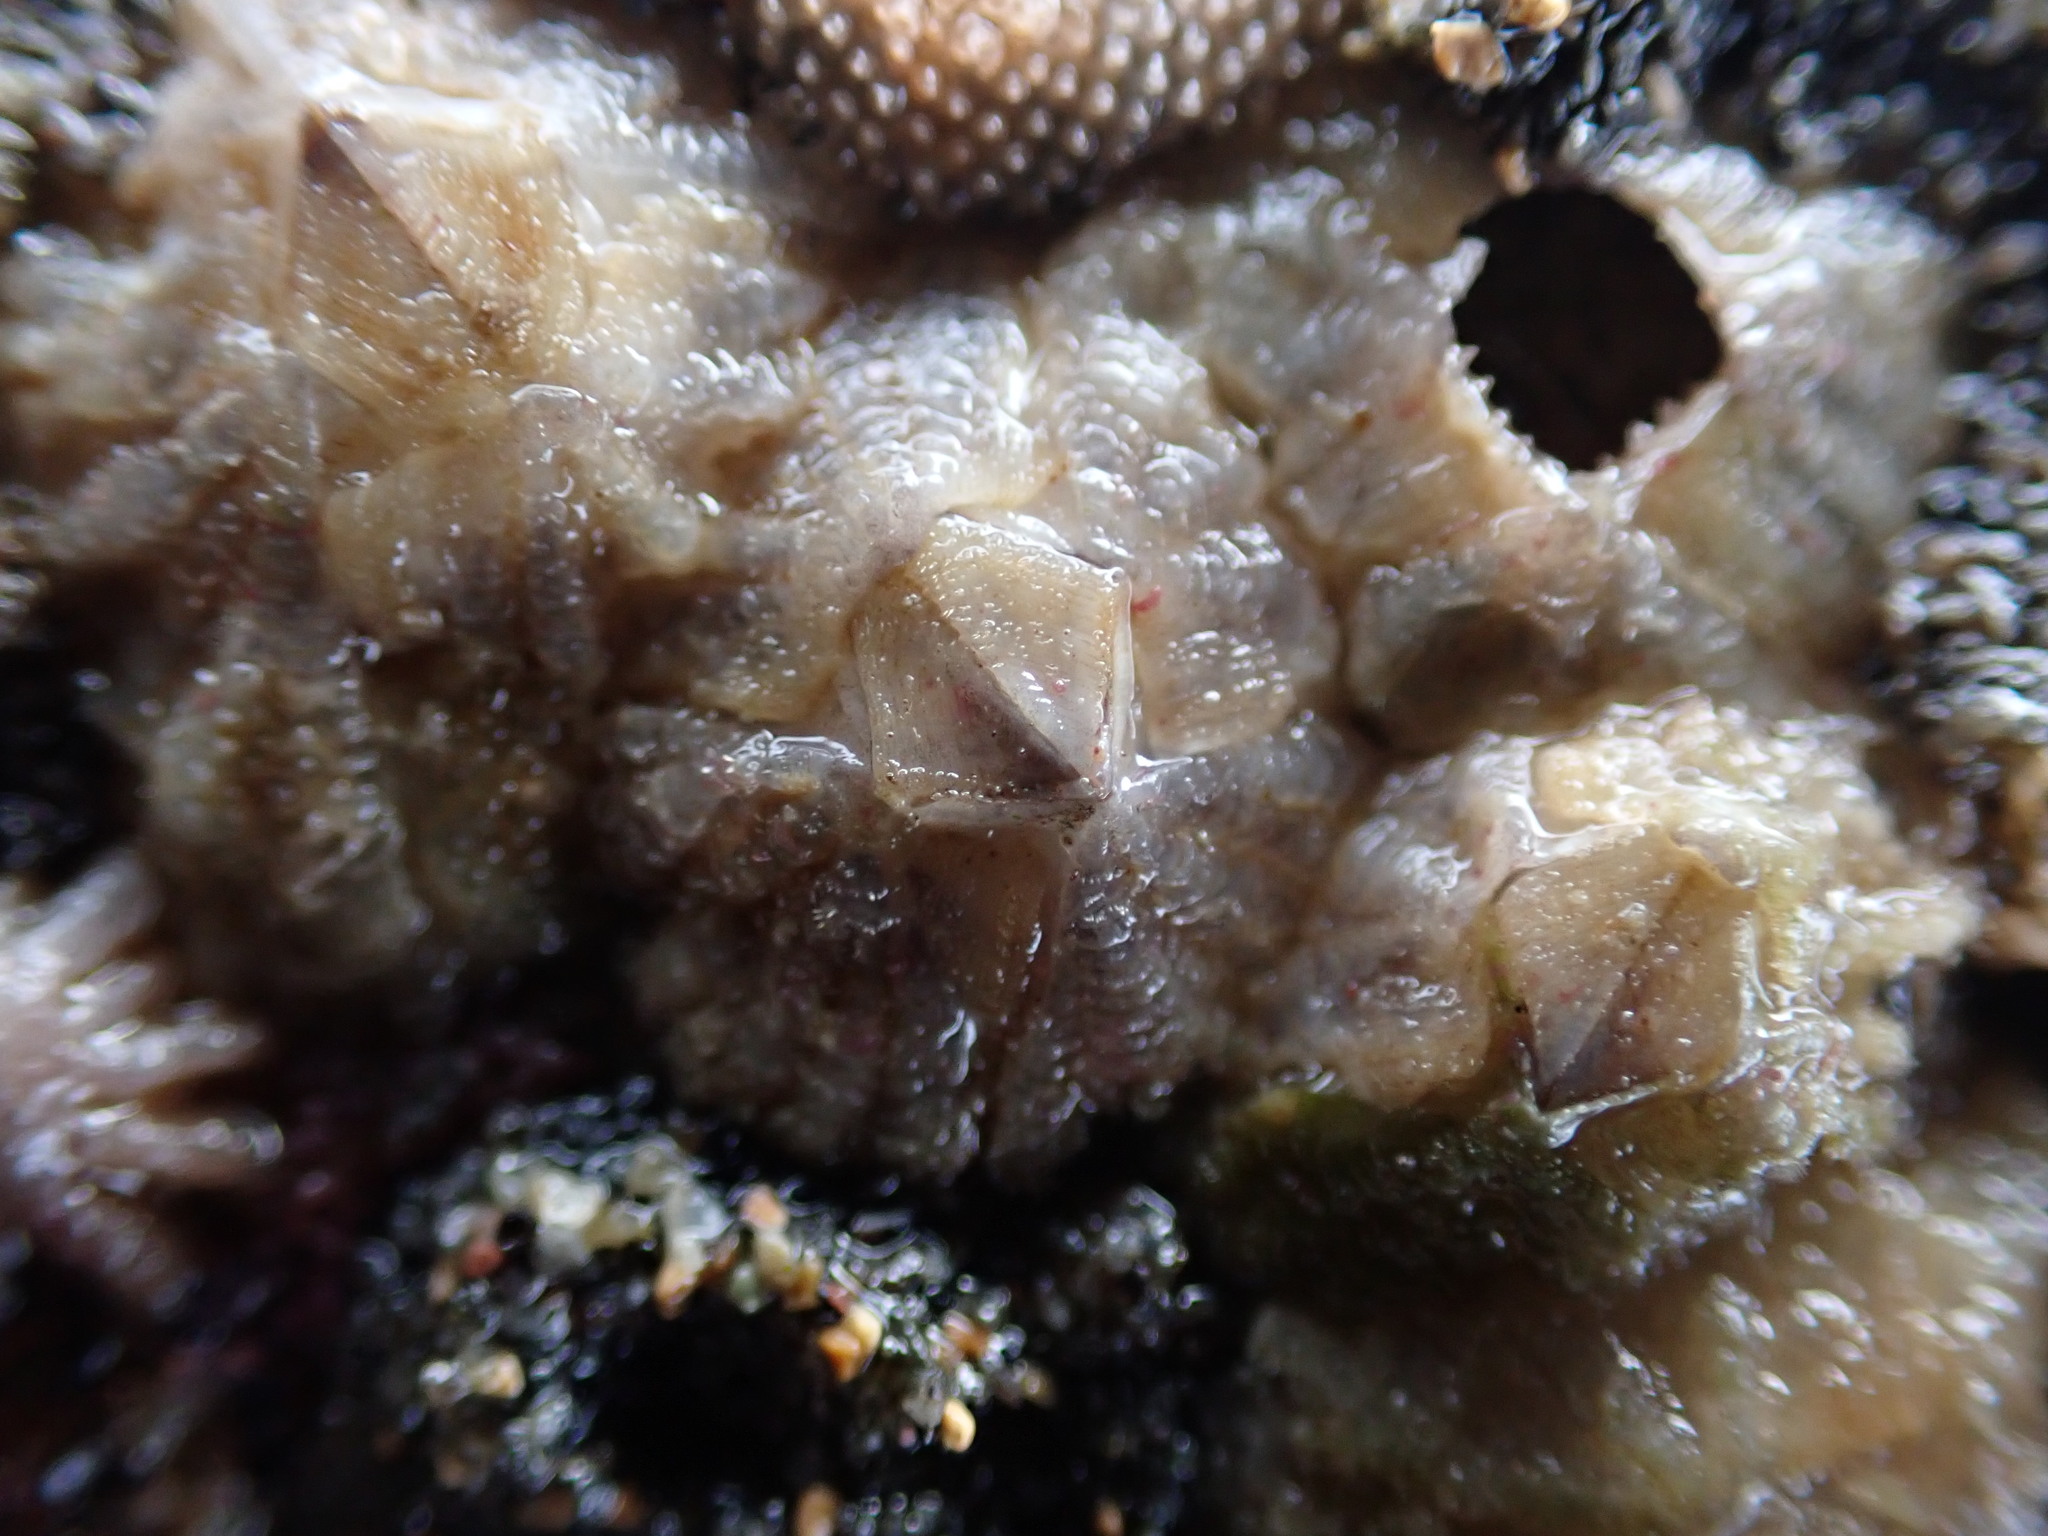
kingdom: Animalia
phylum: Arthropoda
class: Maxillopoda
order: Sessilia
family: Tetraclitidae
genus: Tetraclitella
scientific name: Tetraclitella depressa
